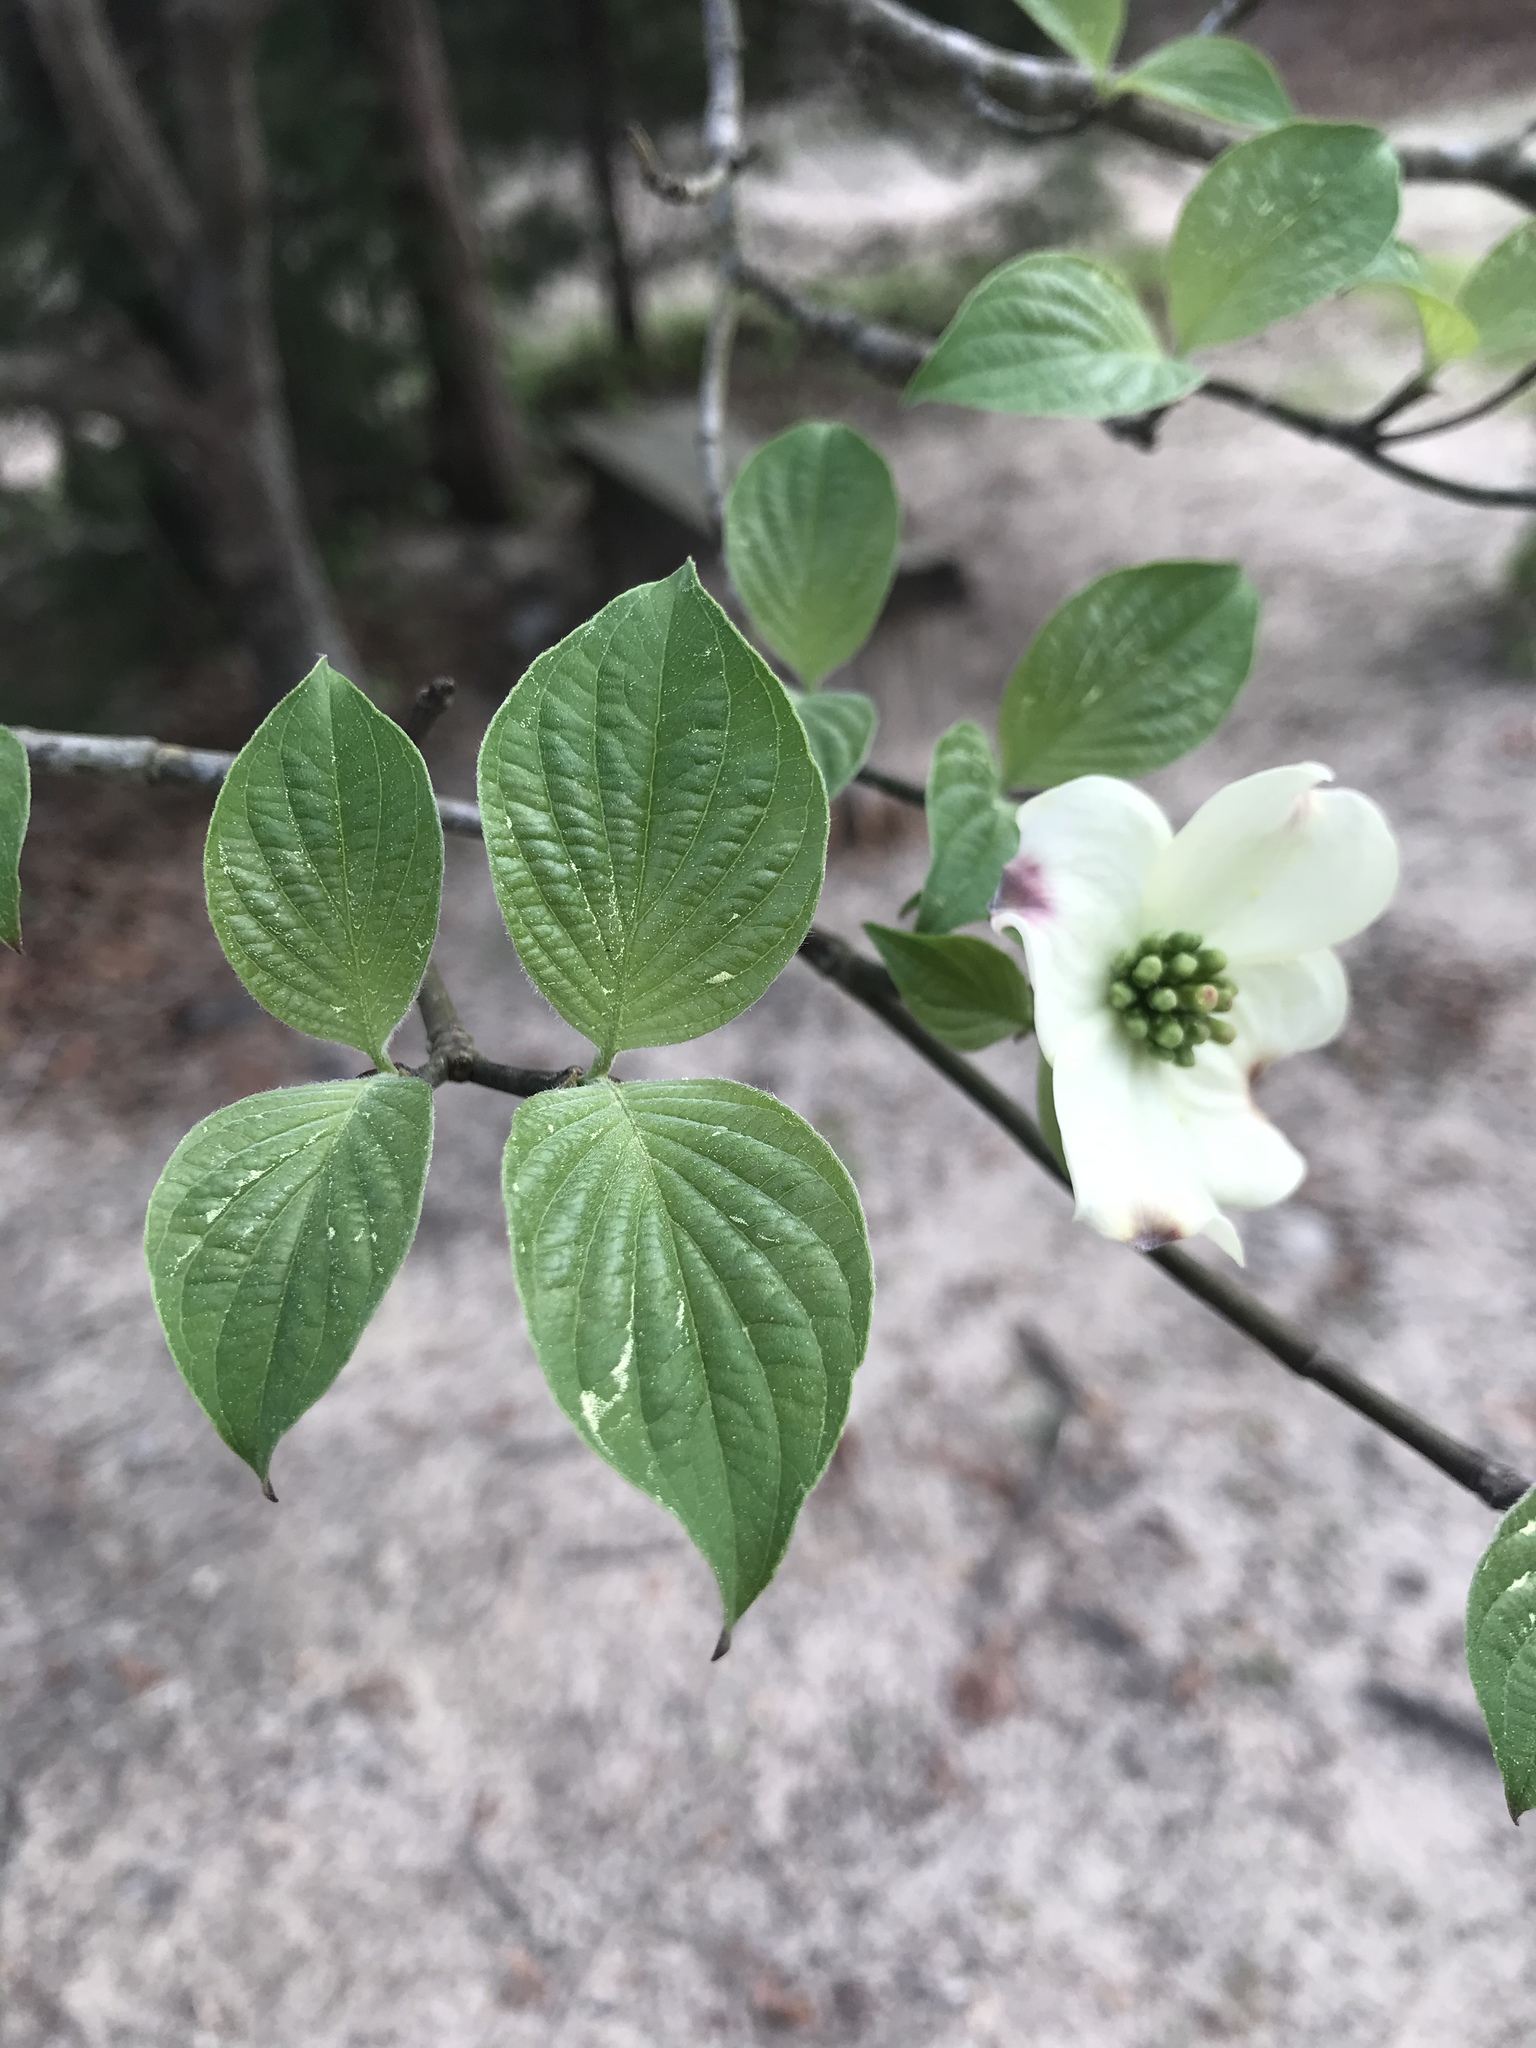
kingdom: Plantae
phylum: Tracheophyta
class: Magnoliopsida
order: Cornales
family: Cornaceae
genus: Cornus
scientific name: Cornus florida
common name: Flowering dogwood
